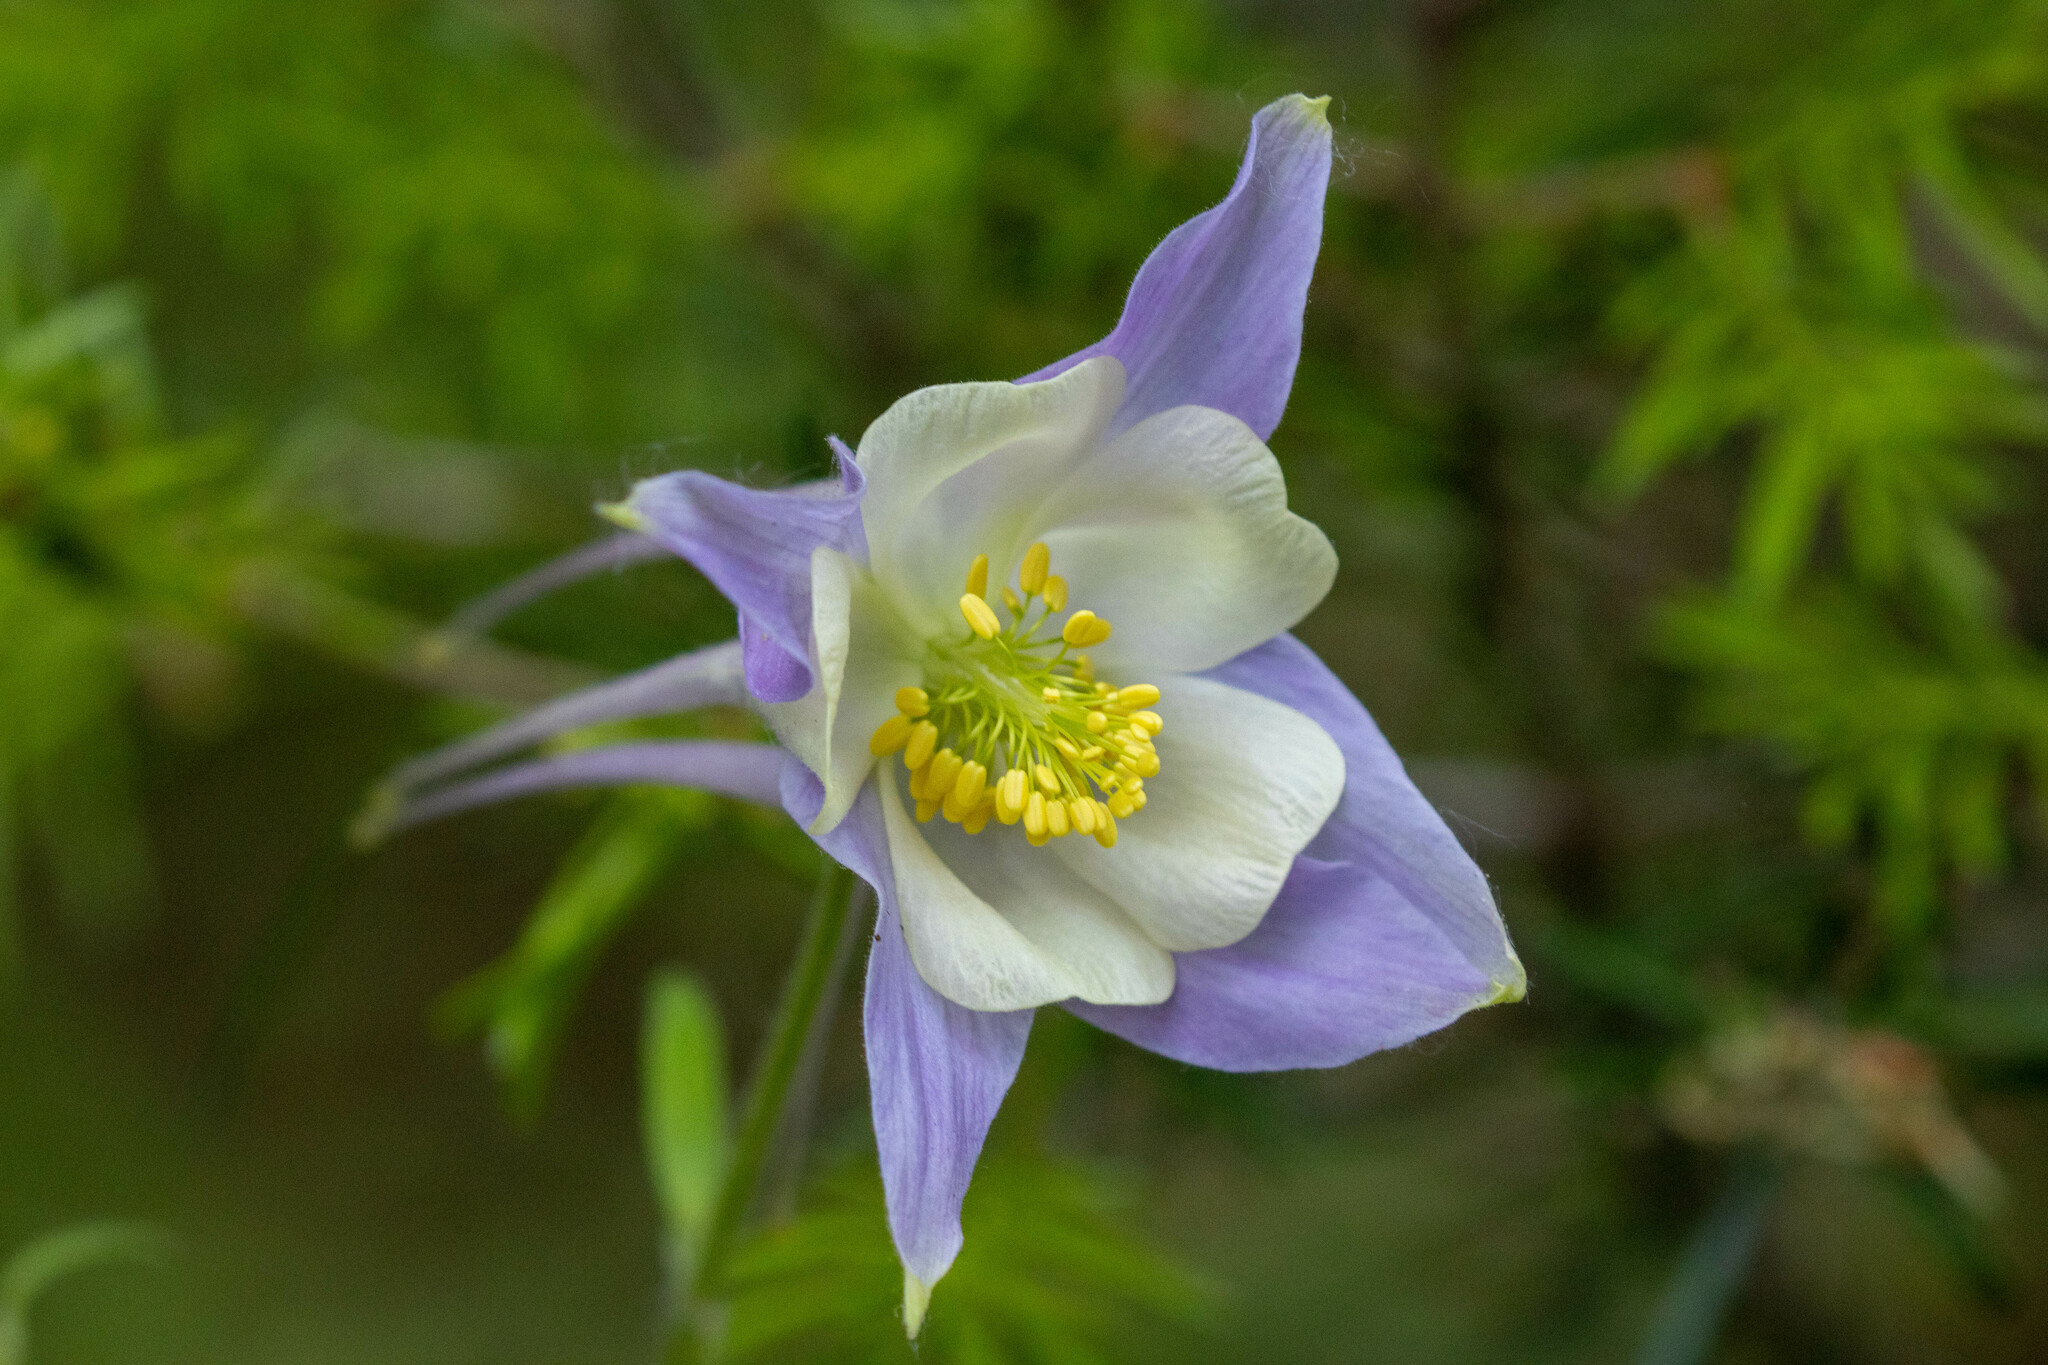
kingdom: Plantae
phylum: Tracheophyta
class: Magnoliopsida
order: Ranunculales
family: Ranunculaceae
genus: Aquilegia
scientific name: Aquilegia coerulea
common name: Rocky mountain columbine
